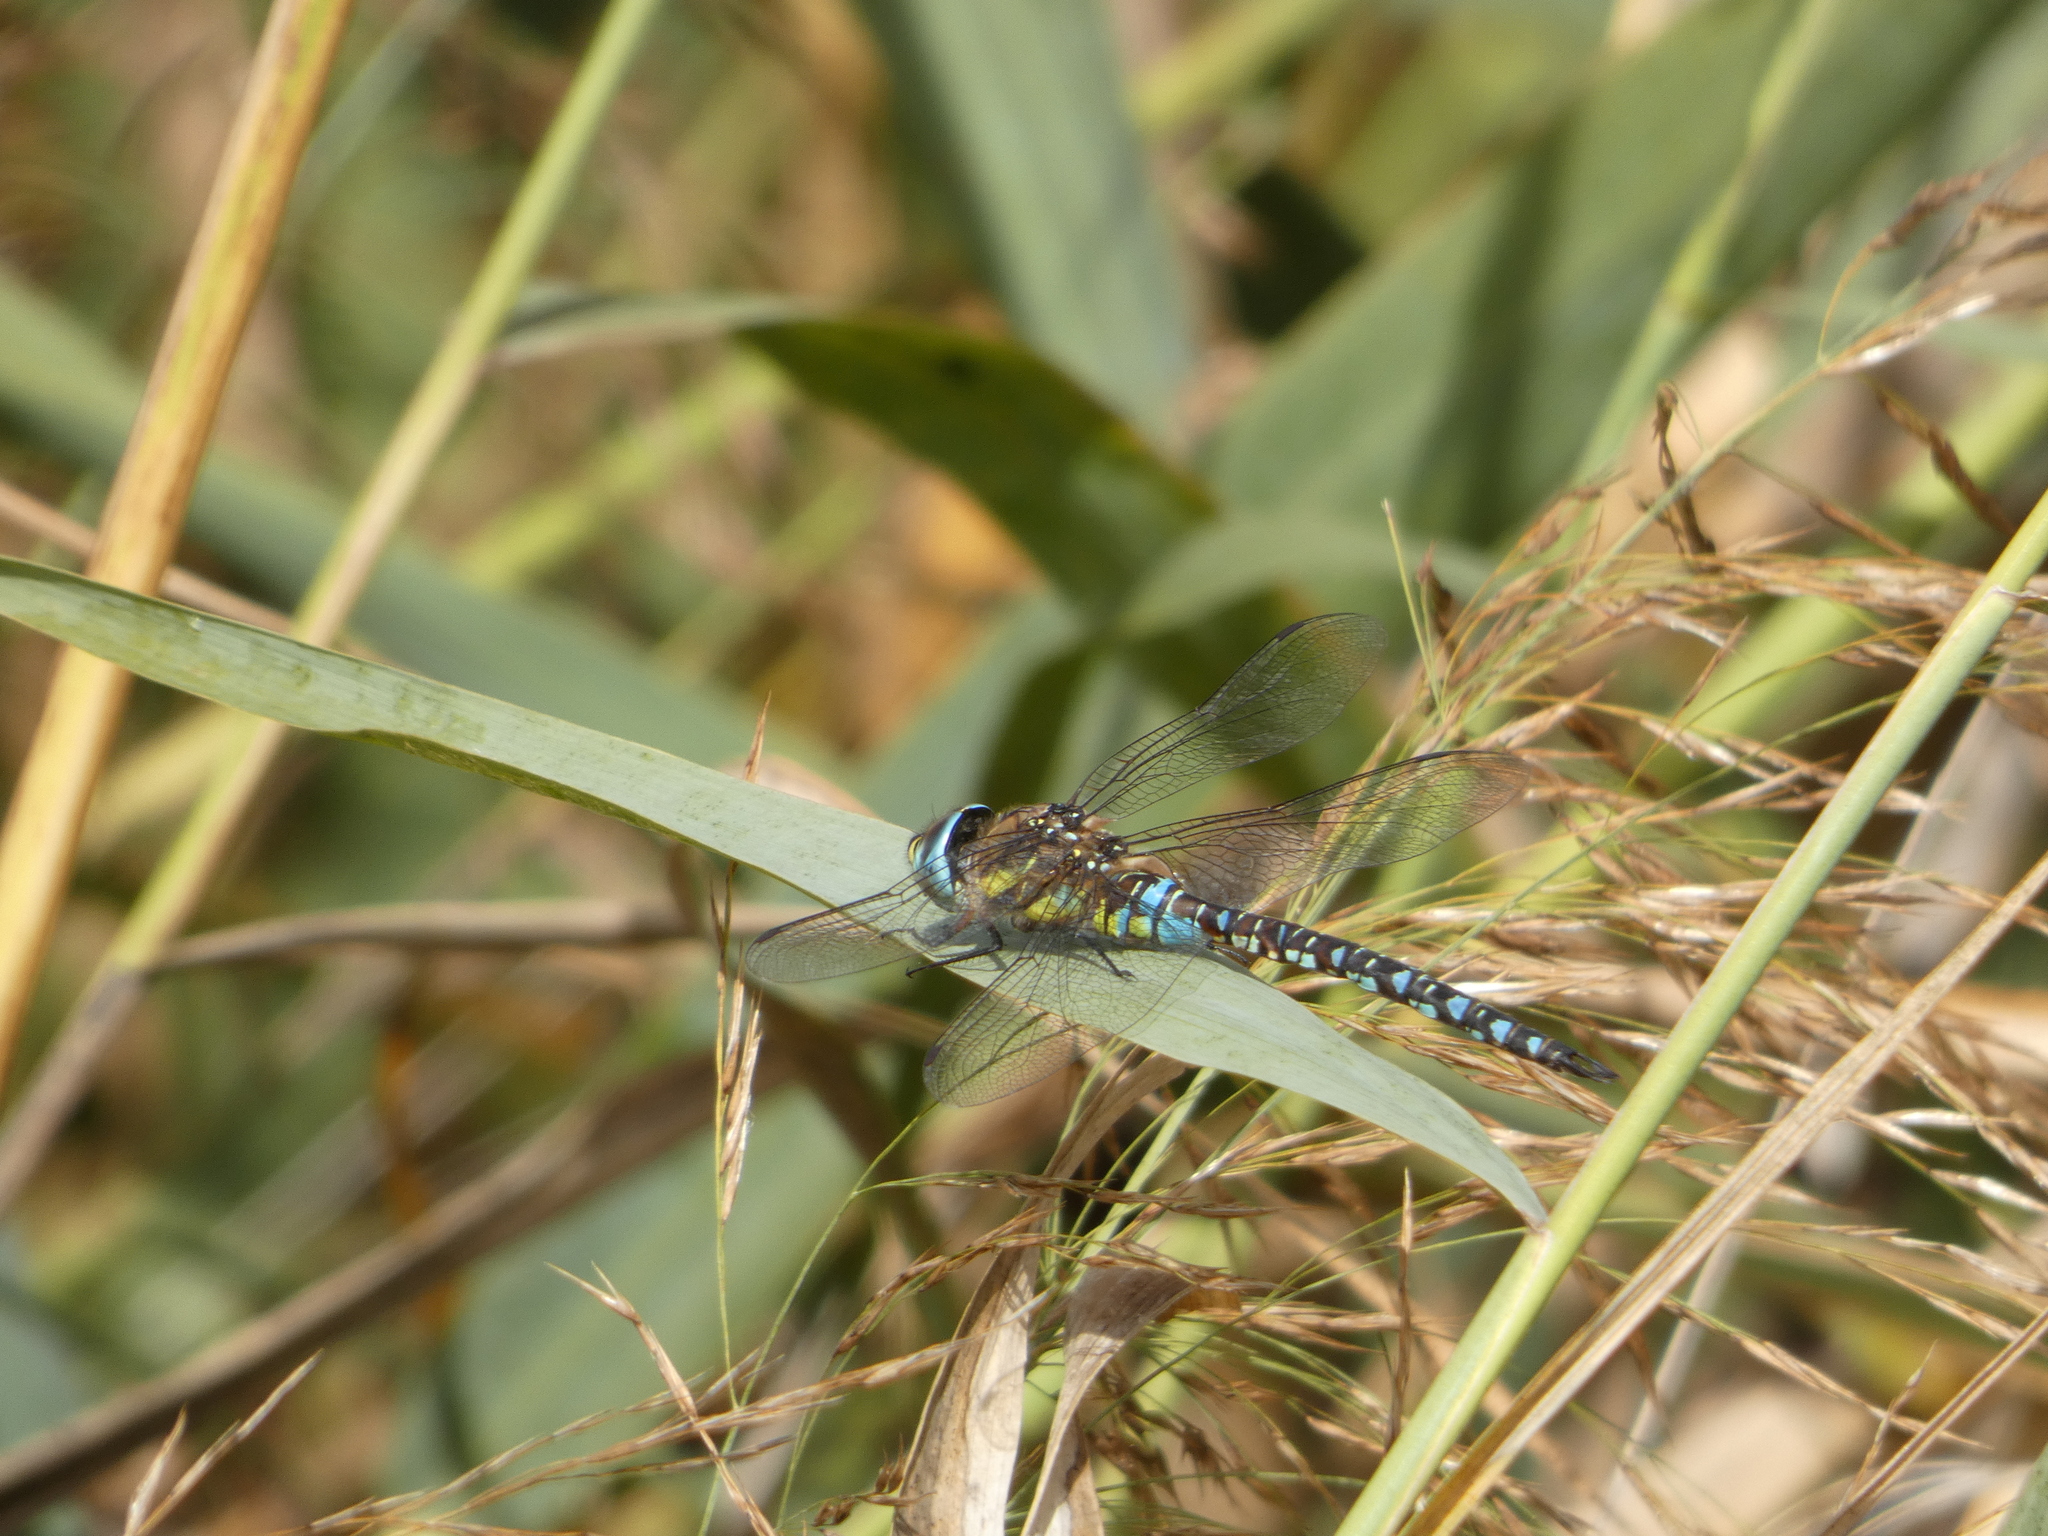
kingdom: Animalia
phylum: Arthropoda
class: Insecta
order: Odonata
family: Aeshnidae
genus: Aeshna
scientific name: Aeshna mixta
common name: Migrant hawker
